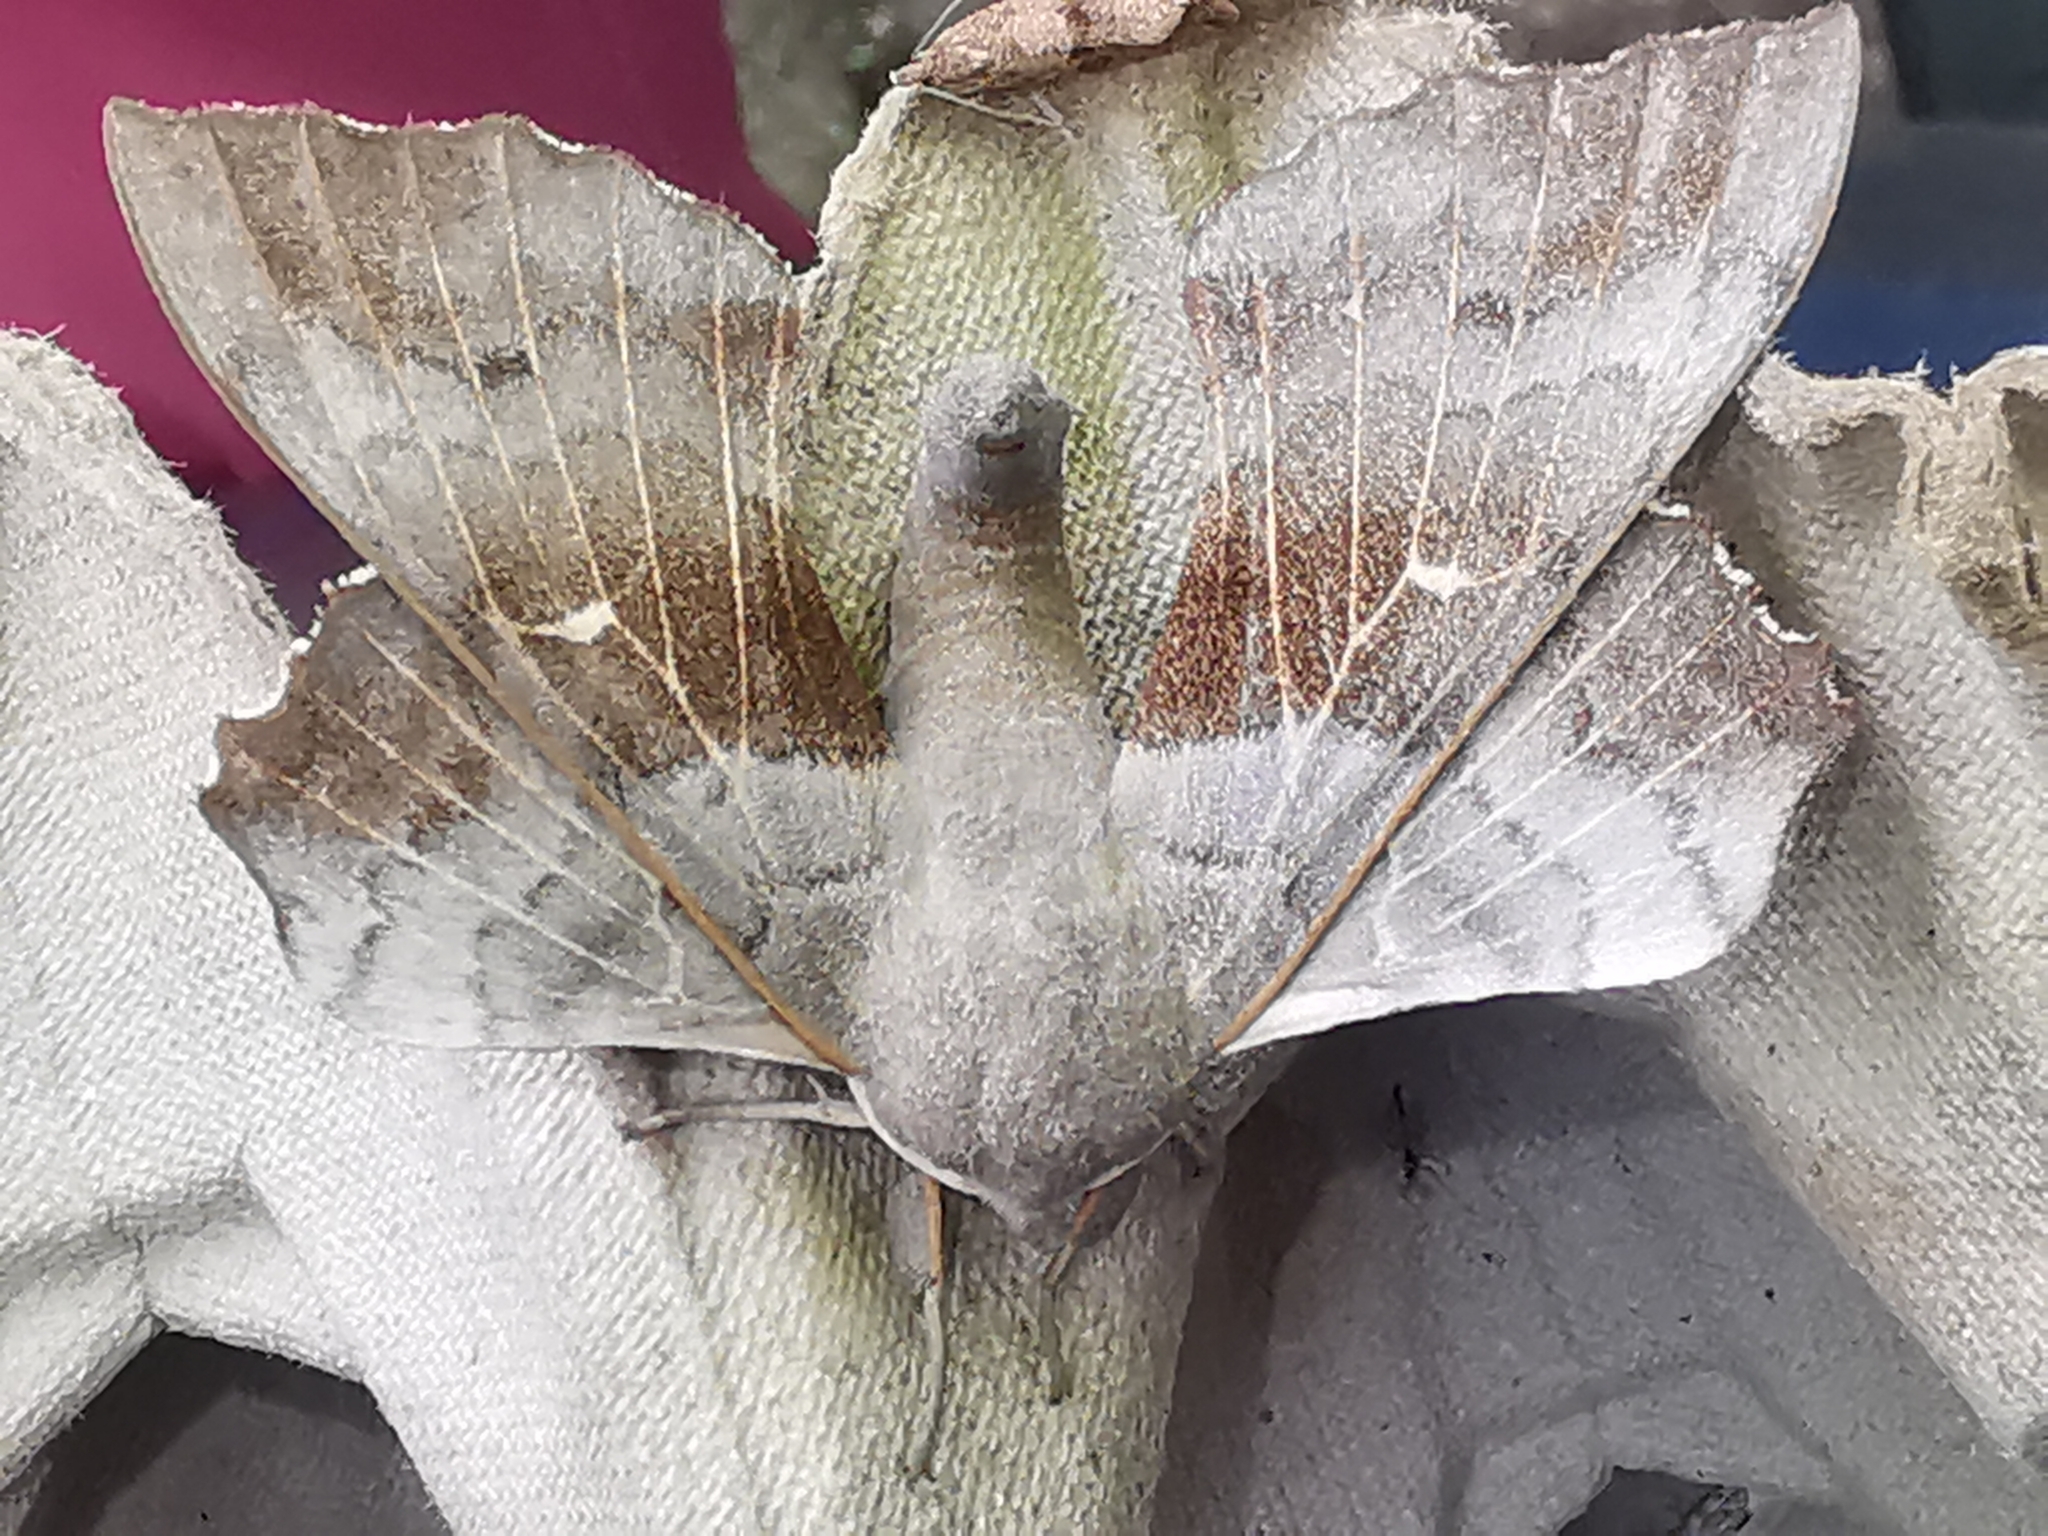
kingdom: Animalia
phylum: Arthropoda
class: Insecta
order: Lepidoptera
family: Sphingidae
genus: Laothoe
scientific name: Laothoe populi
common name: Poplar hawk-moth
